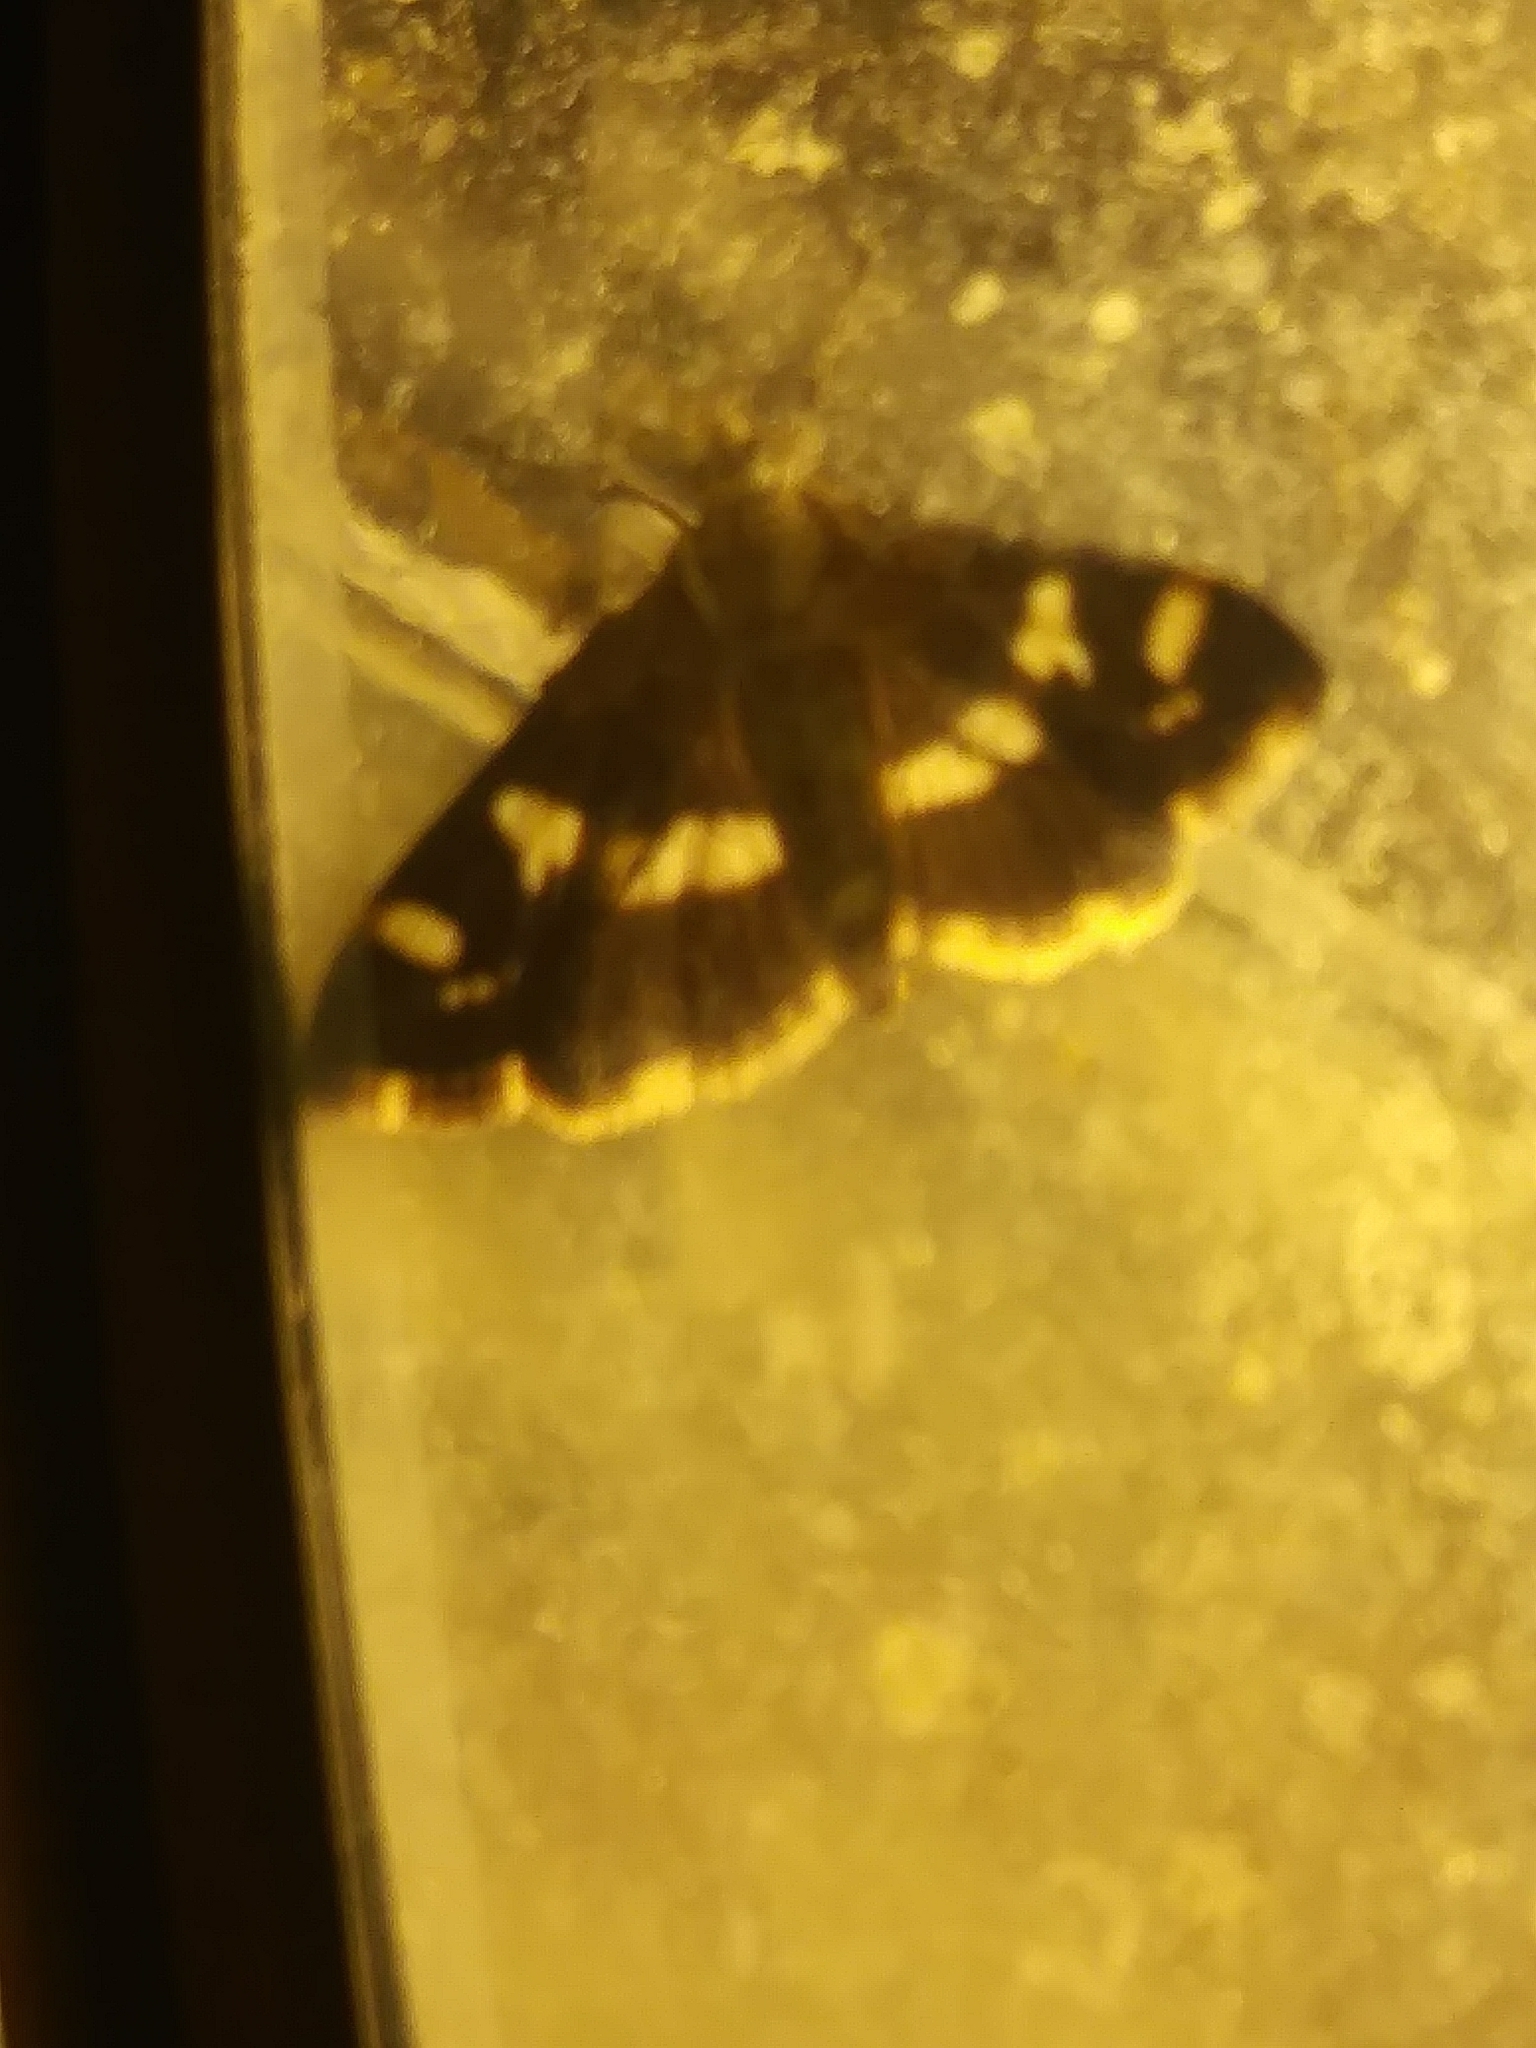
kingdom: Animalia
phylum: Arthropoda
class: Insecta
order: Lepidoptera
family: Crambidae
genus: Spoladea
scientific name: Spoladea recurvalis
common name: Beet webworm moth
